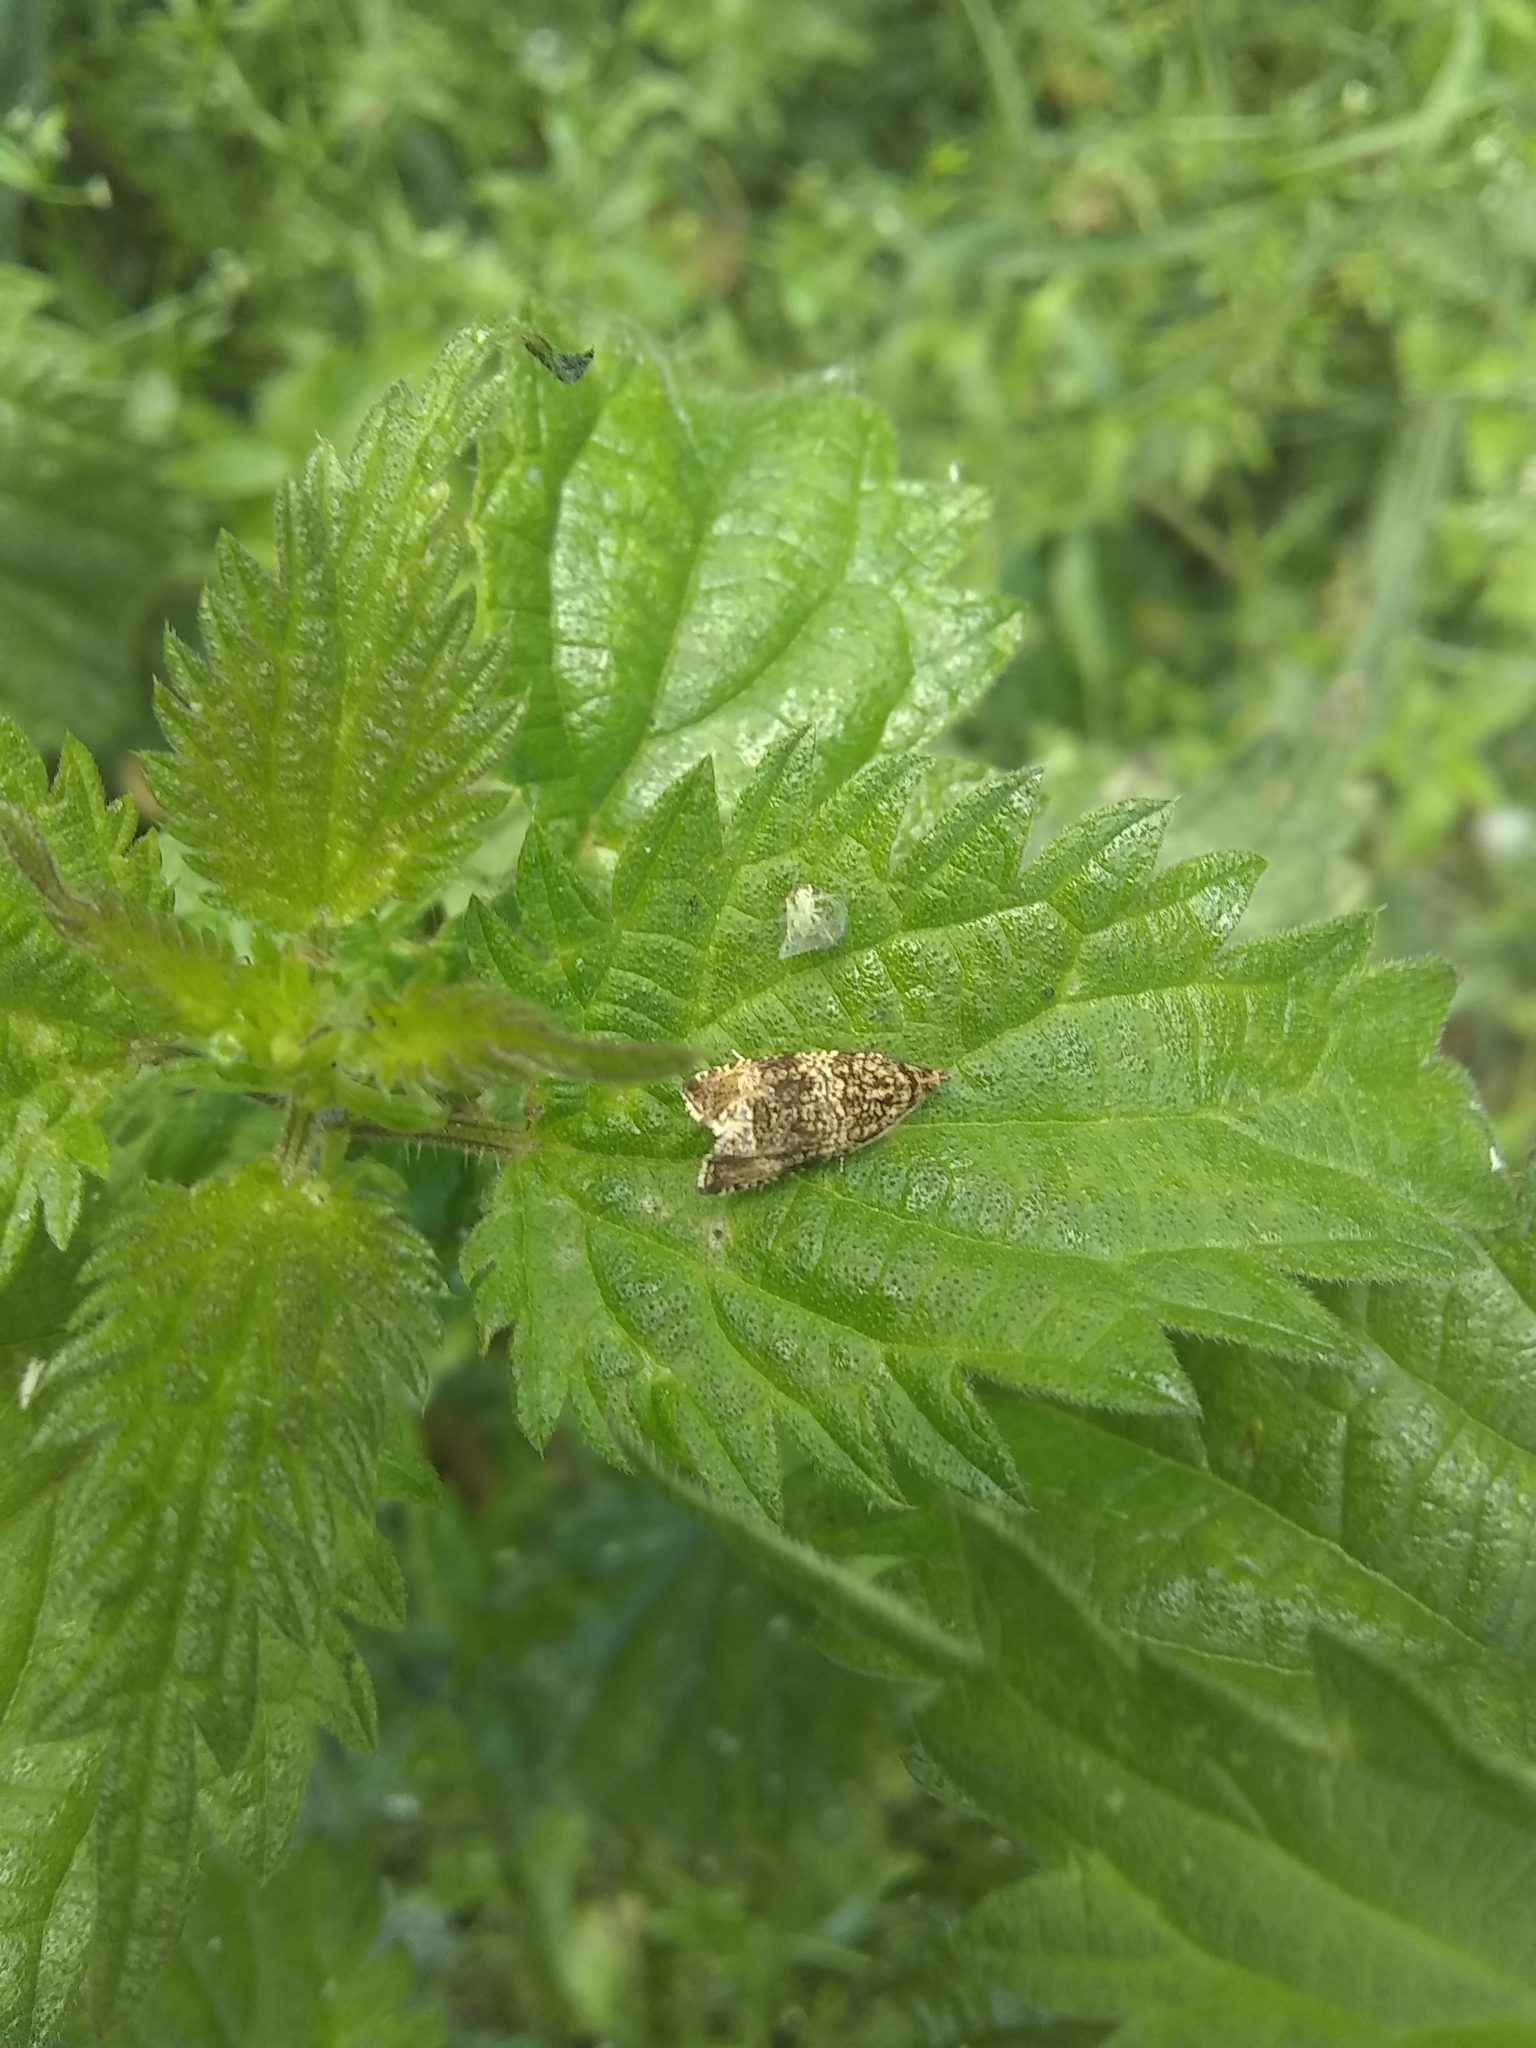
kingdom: Animalia
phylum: Arthropoda
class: Insecta
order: Lepidoptera
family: Tortricidae
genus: Syricoris
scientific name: Syricoris lacunana
